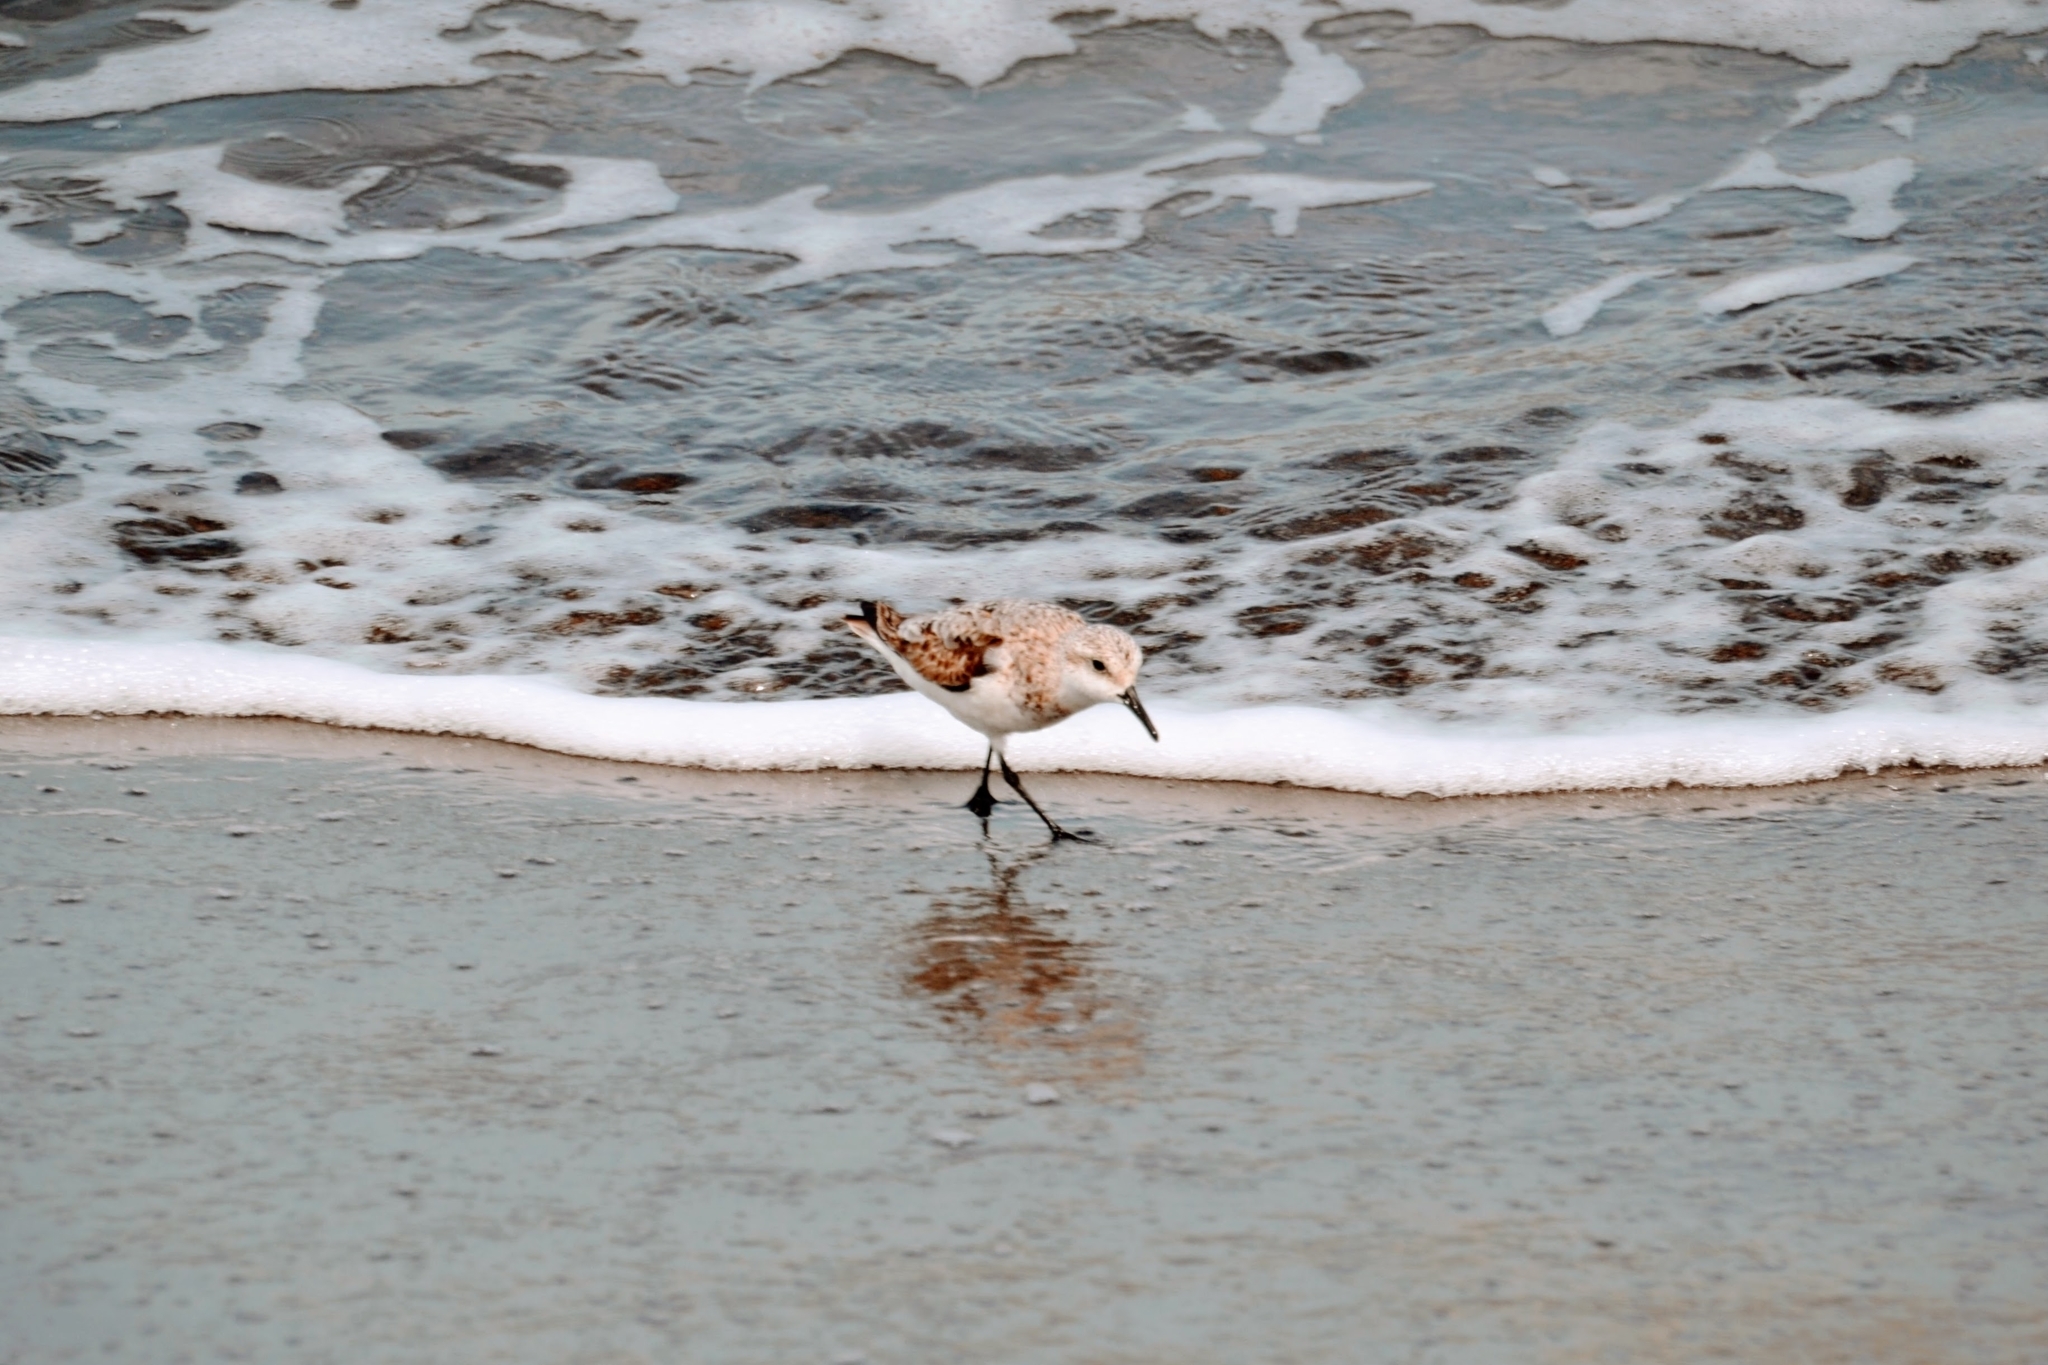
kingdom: Animalia
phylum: Chordata
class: Aves
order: Charadriiformes
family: Scolopacidae
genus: Calidris
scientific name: Calidris alba
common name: Sanderling
